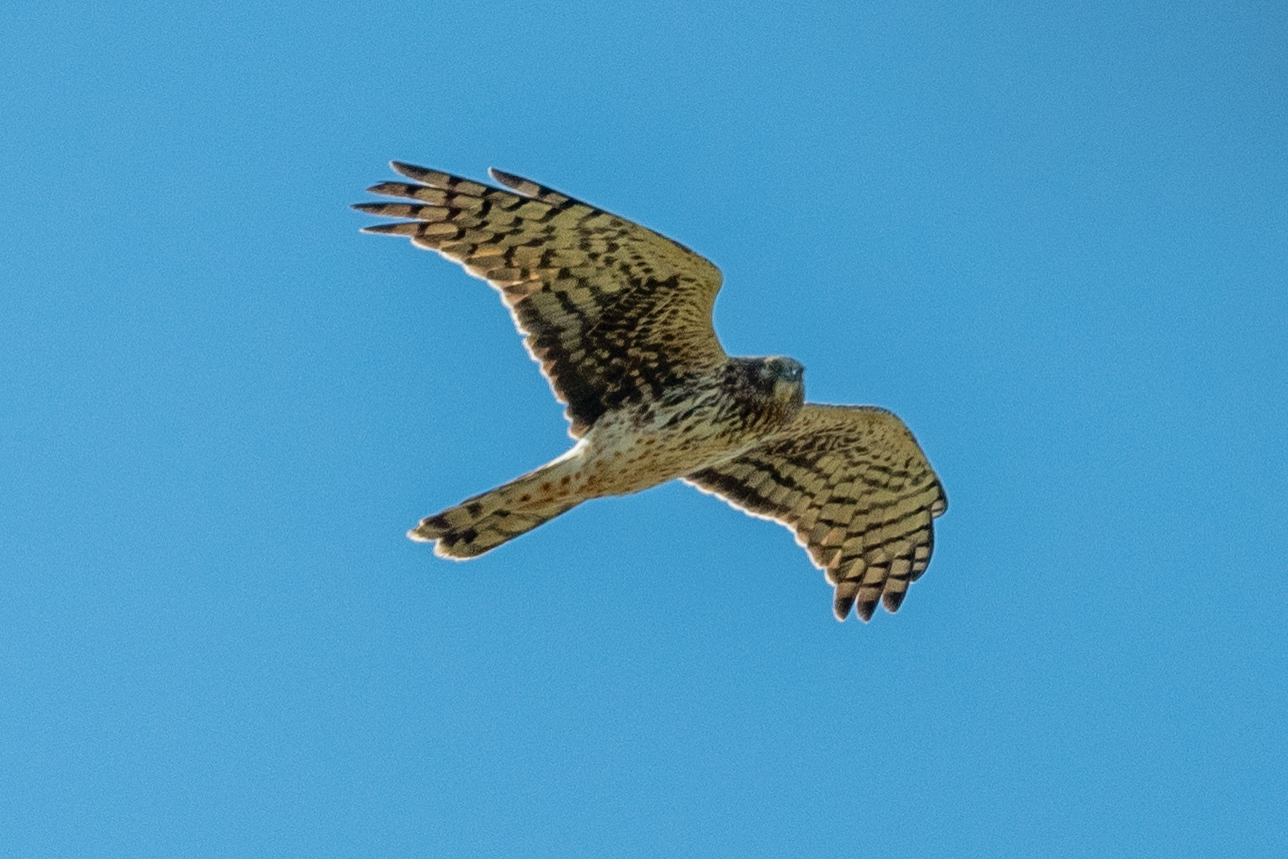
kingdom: Animalia
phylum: Chordata
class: Aves
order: Accipitriformes
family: Accipitridae
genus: Circus
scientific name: Circus cyaneus
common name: Hen harrier
